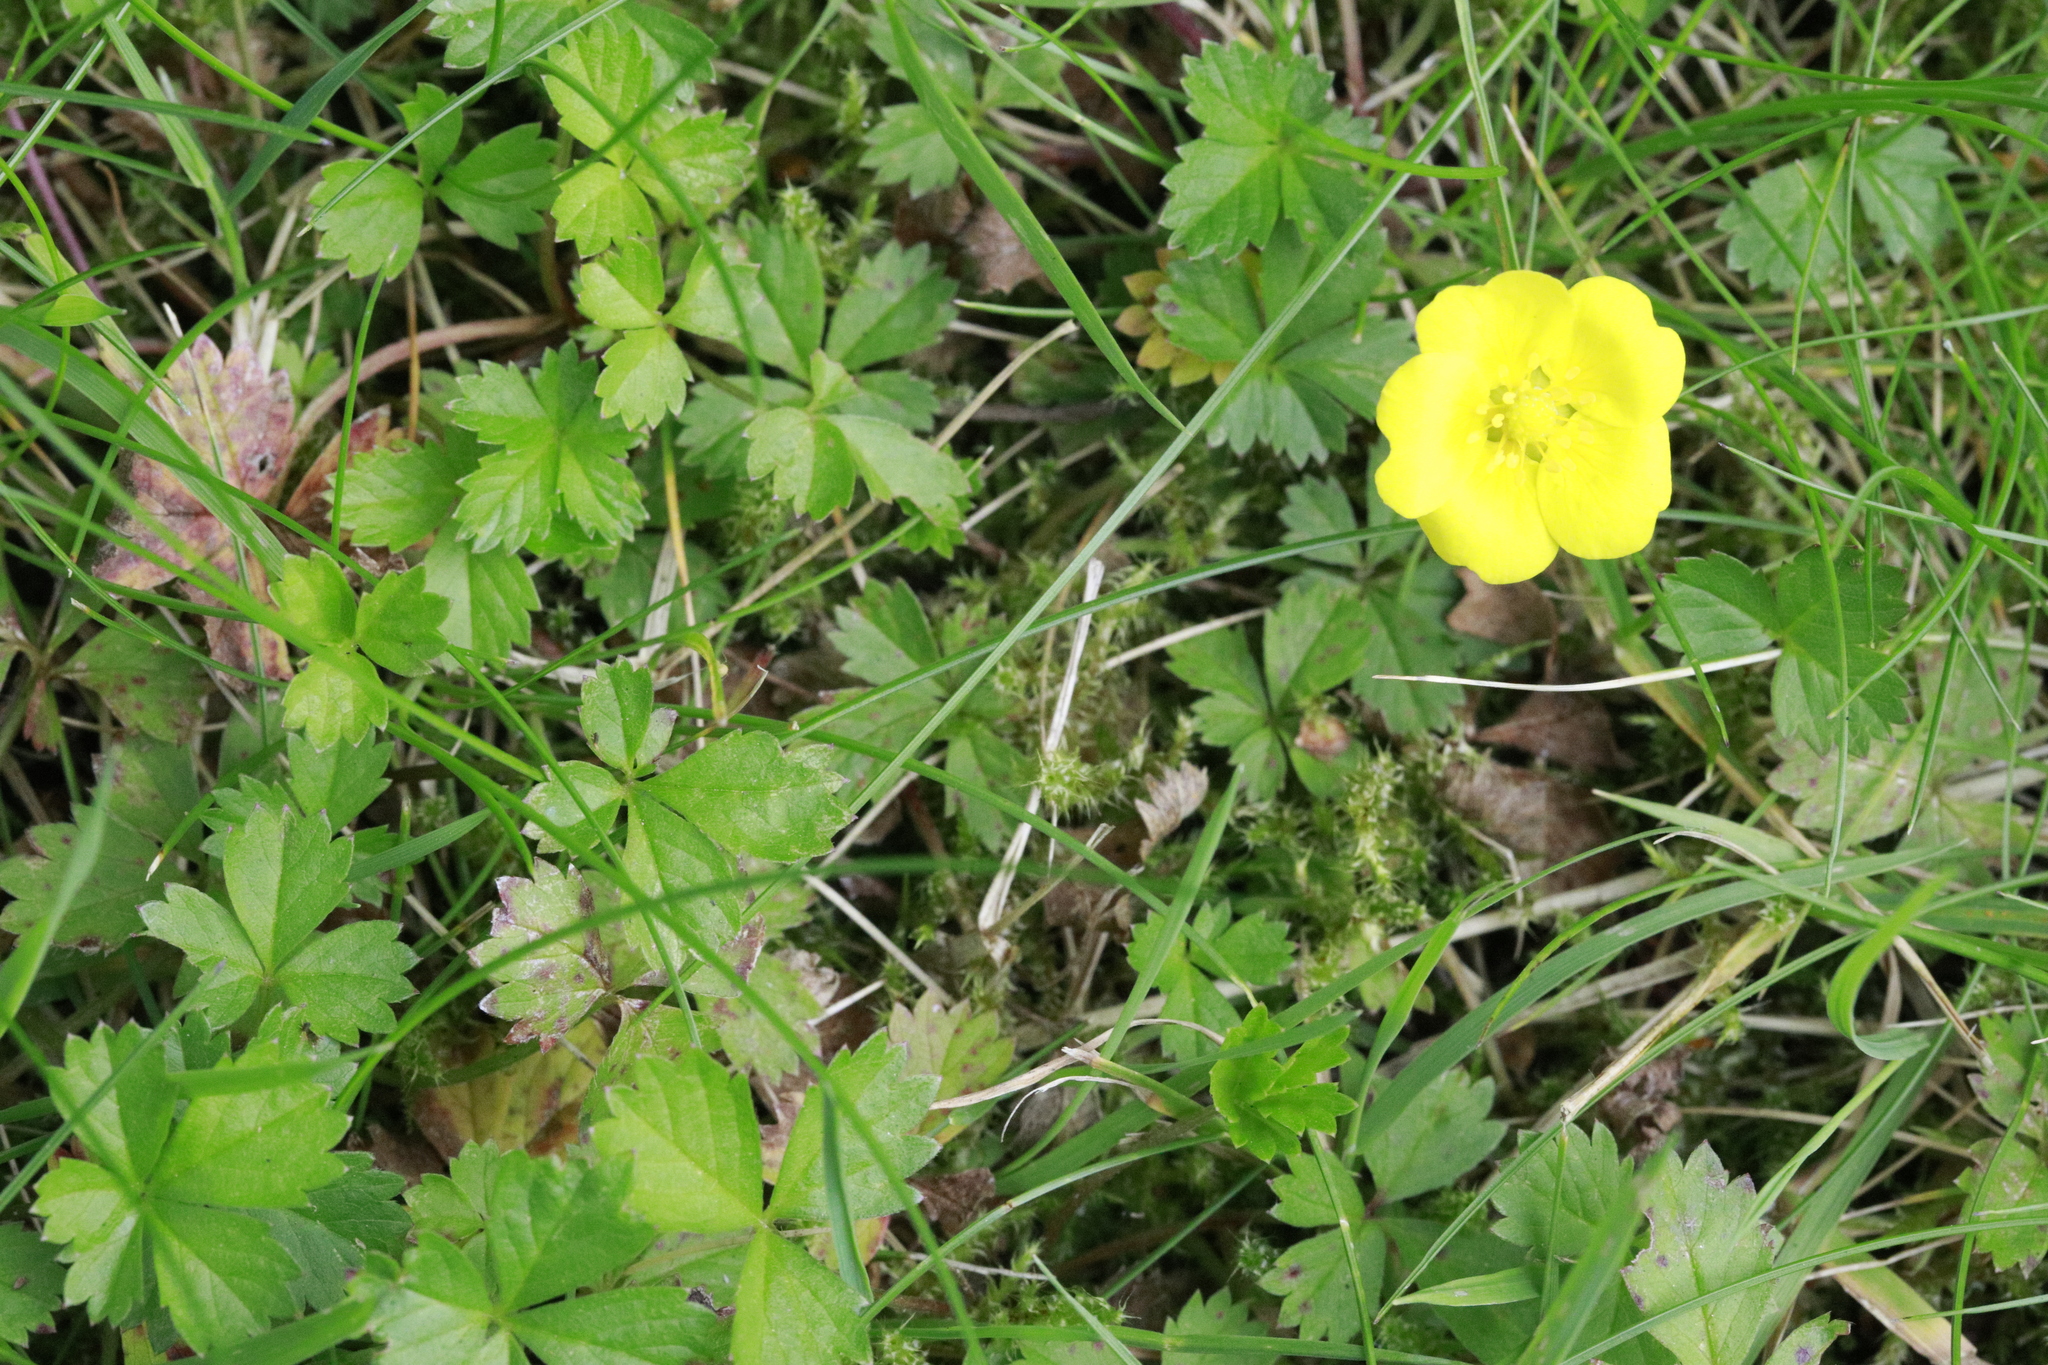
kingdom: Plantae
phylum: Tracheophyta
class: Magnoliopsida
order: Rosales
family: Rosaceae
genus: Potentilla
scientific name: Potentilla reptans
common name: Creeping cinquefoil
